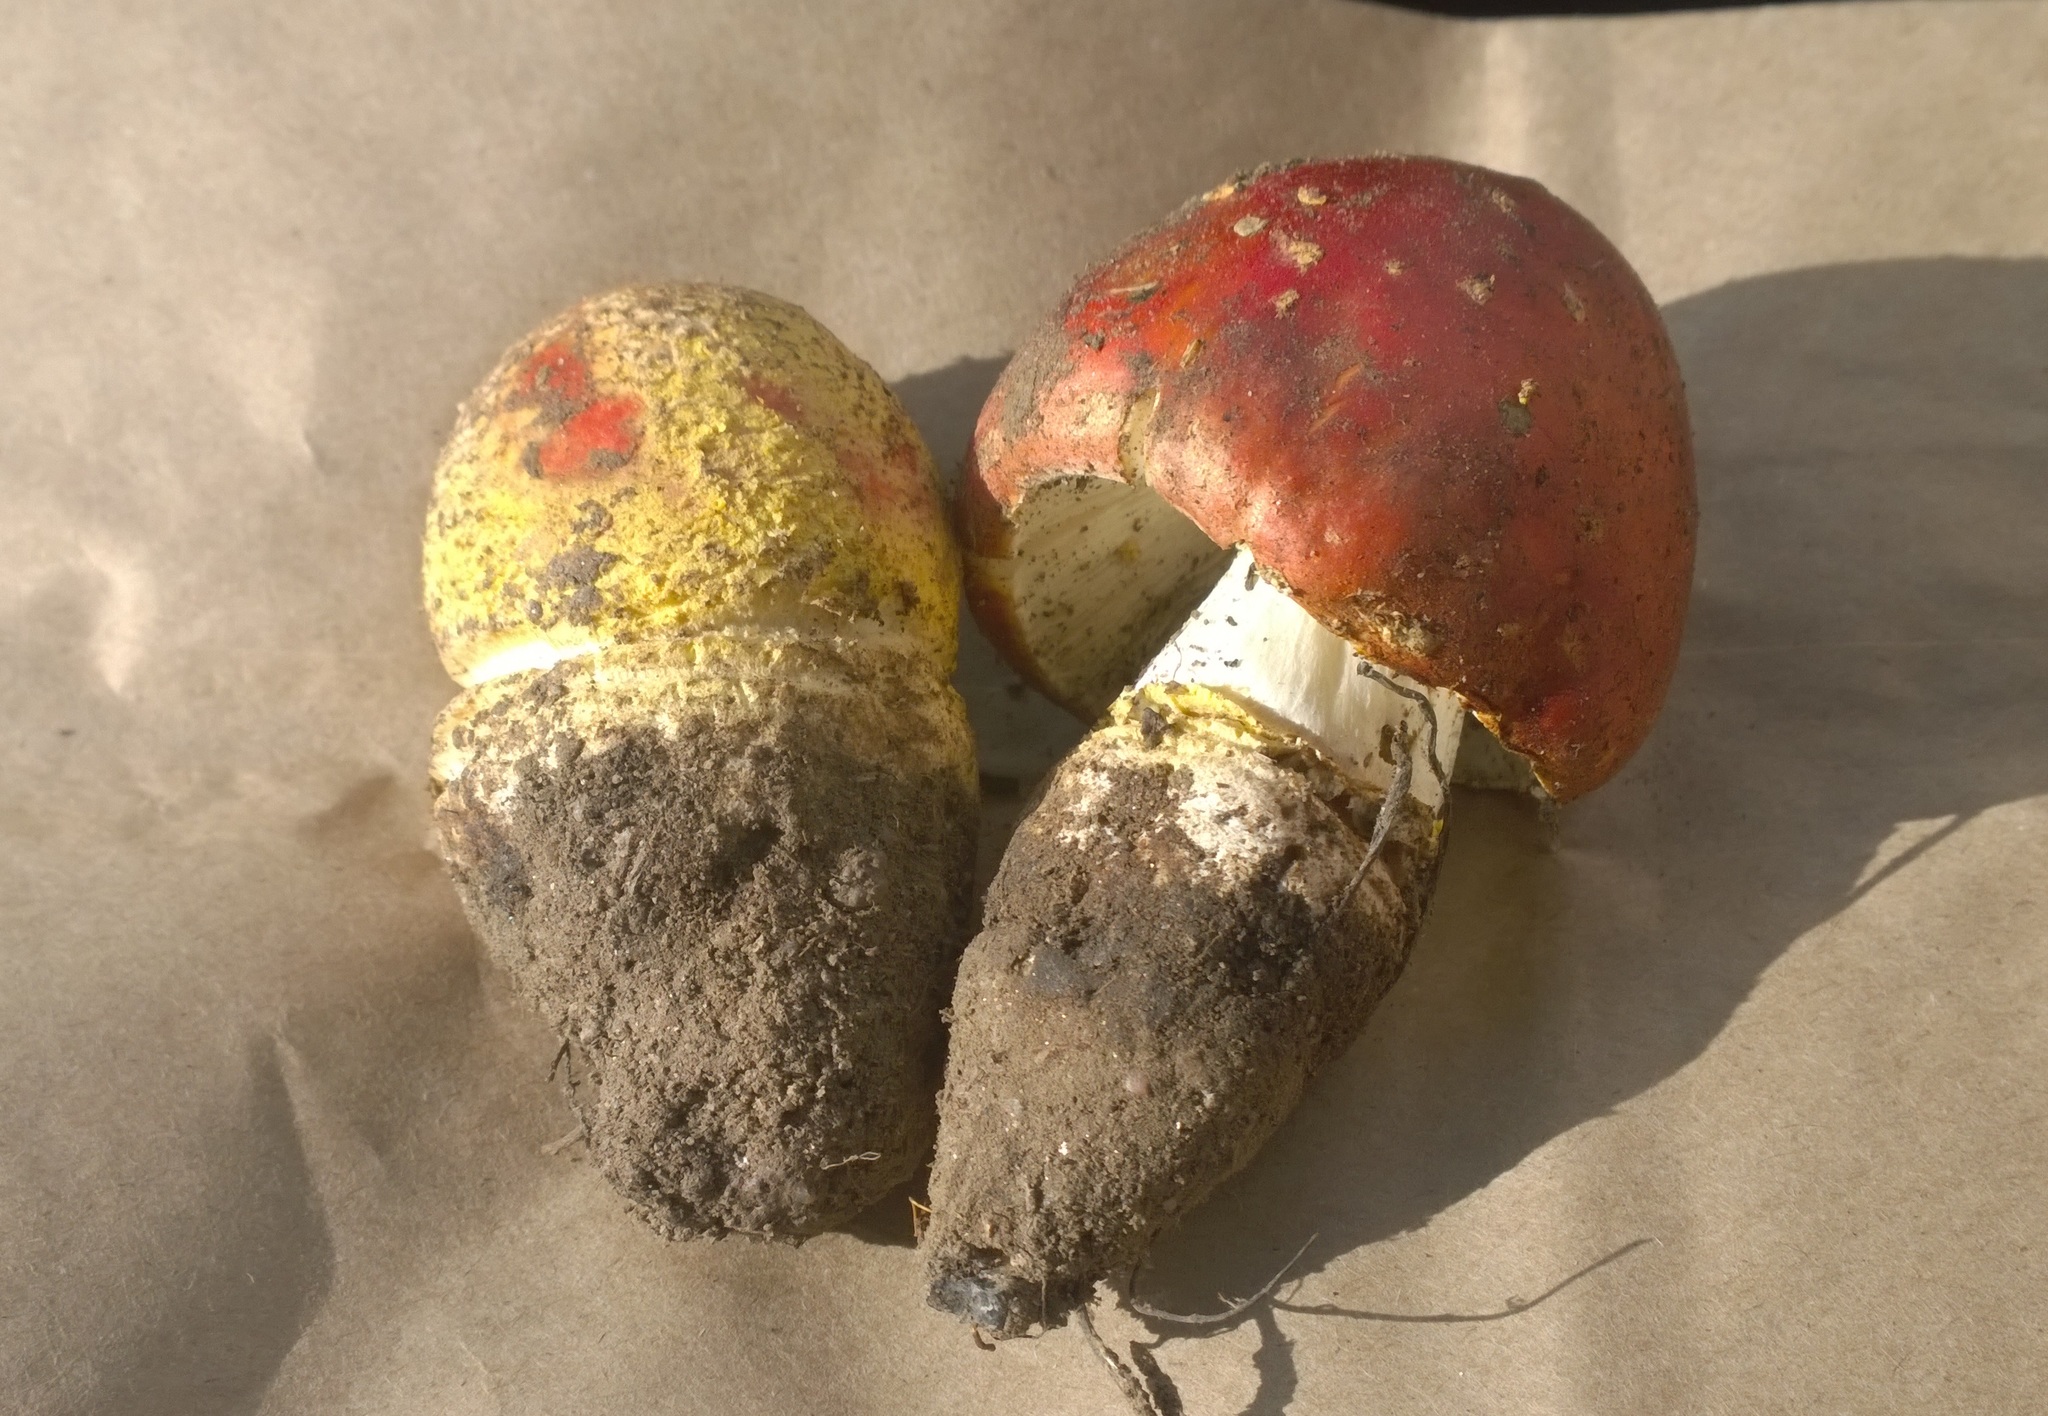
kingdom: Fungi
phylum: Basidiomycota
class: Agaricomycetes
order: Agaricales
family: Amanitaceae
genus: Amanita
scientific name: Amanita muscaria
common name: Fly agaric
